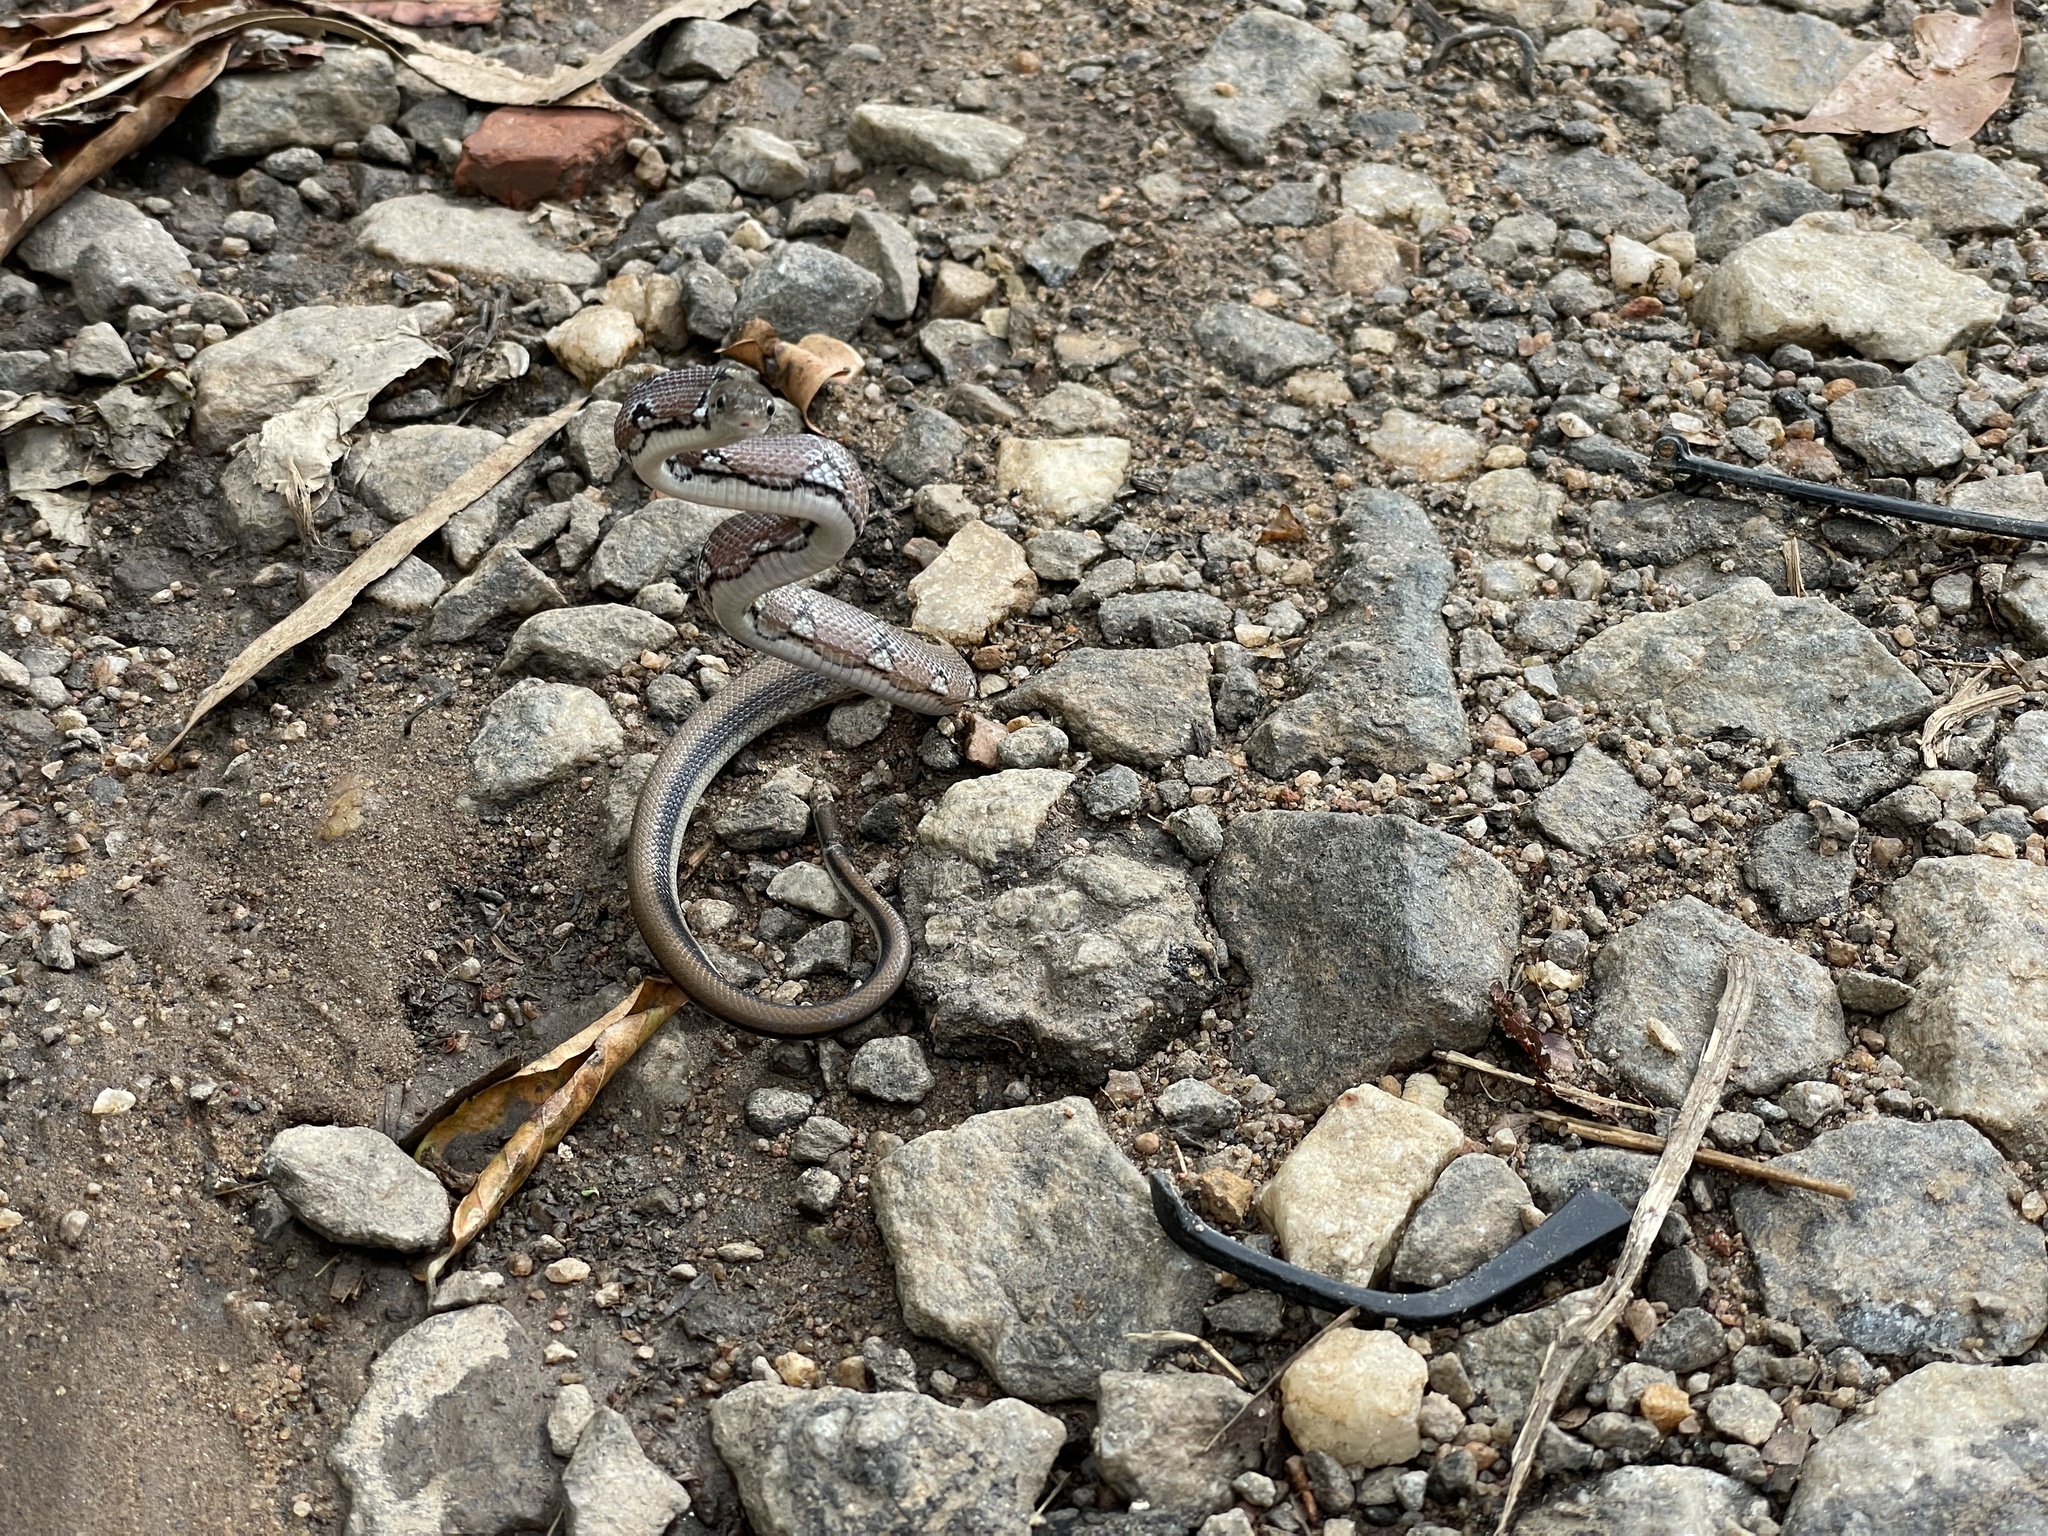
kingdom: Animalia
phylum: Chordata
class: Squamata
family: Colubridae
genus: Coelognathus
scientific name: Coelognathus helena
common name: Trinket snake
